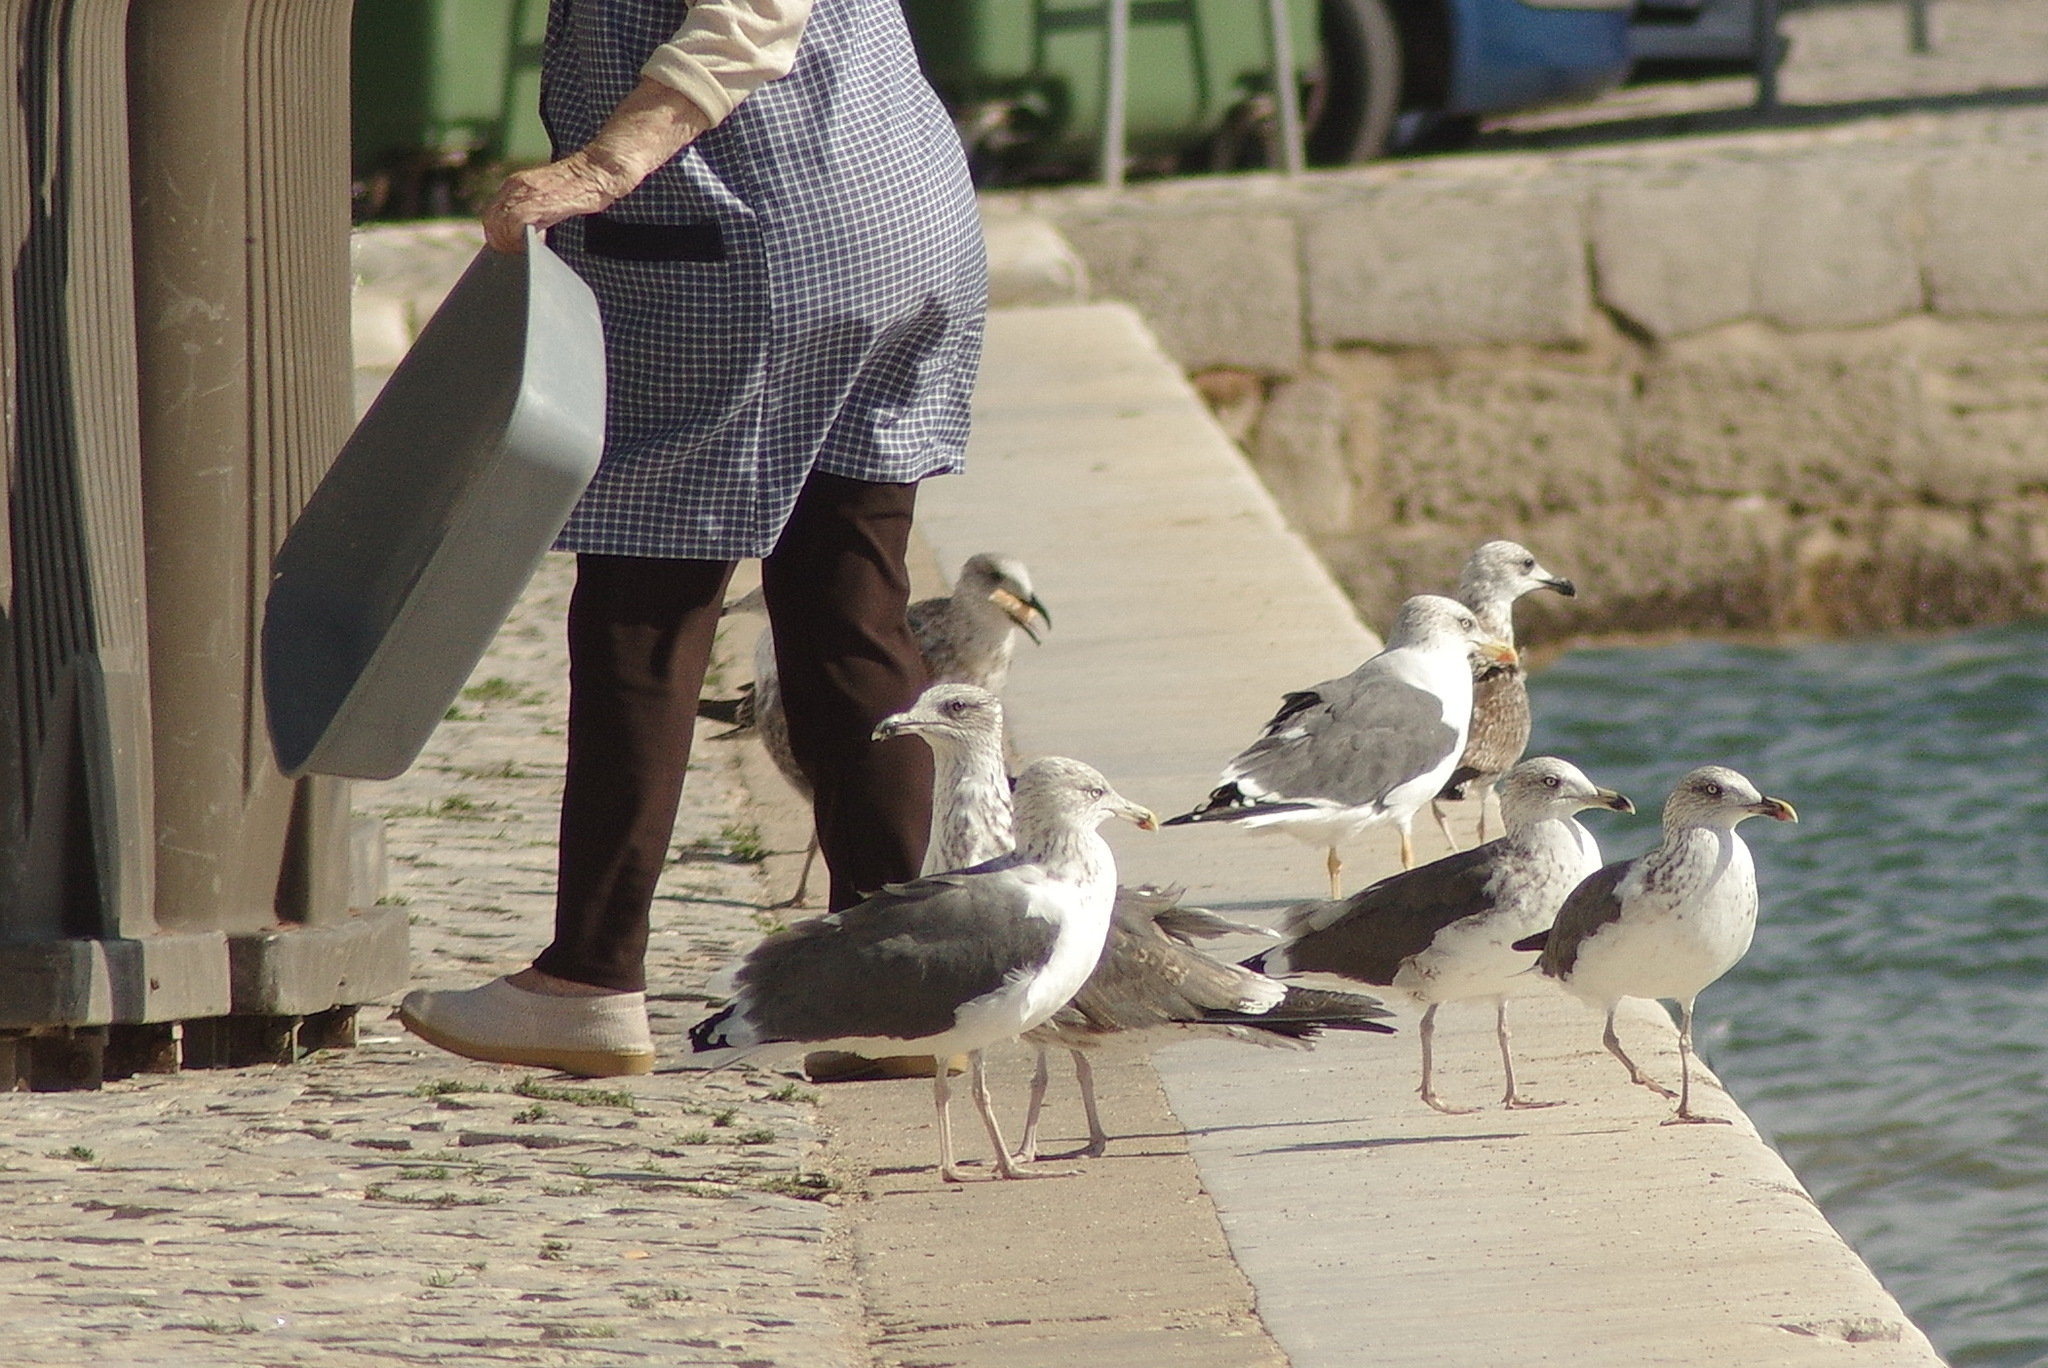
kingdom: Animalia
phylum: Chordata
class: Aves
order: Charadriiformes
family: Laridae
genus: Larus
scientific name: Larus fuscus
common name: Lesser black-backed gull
